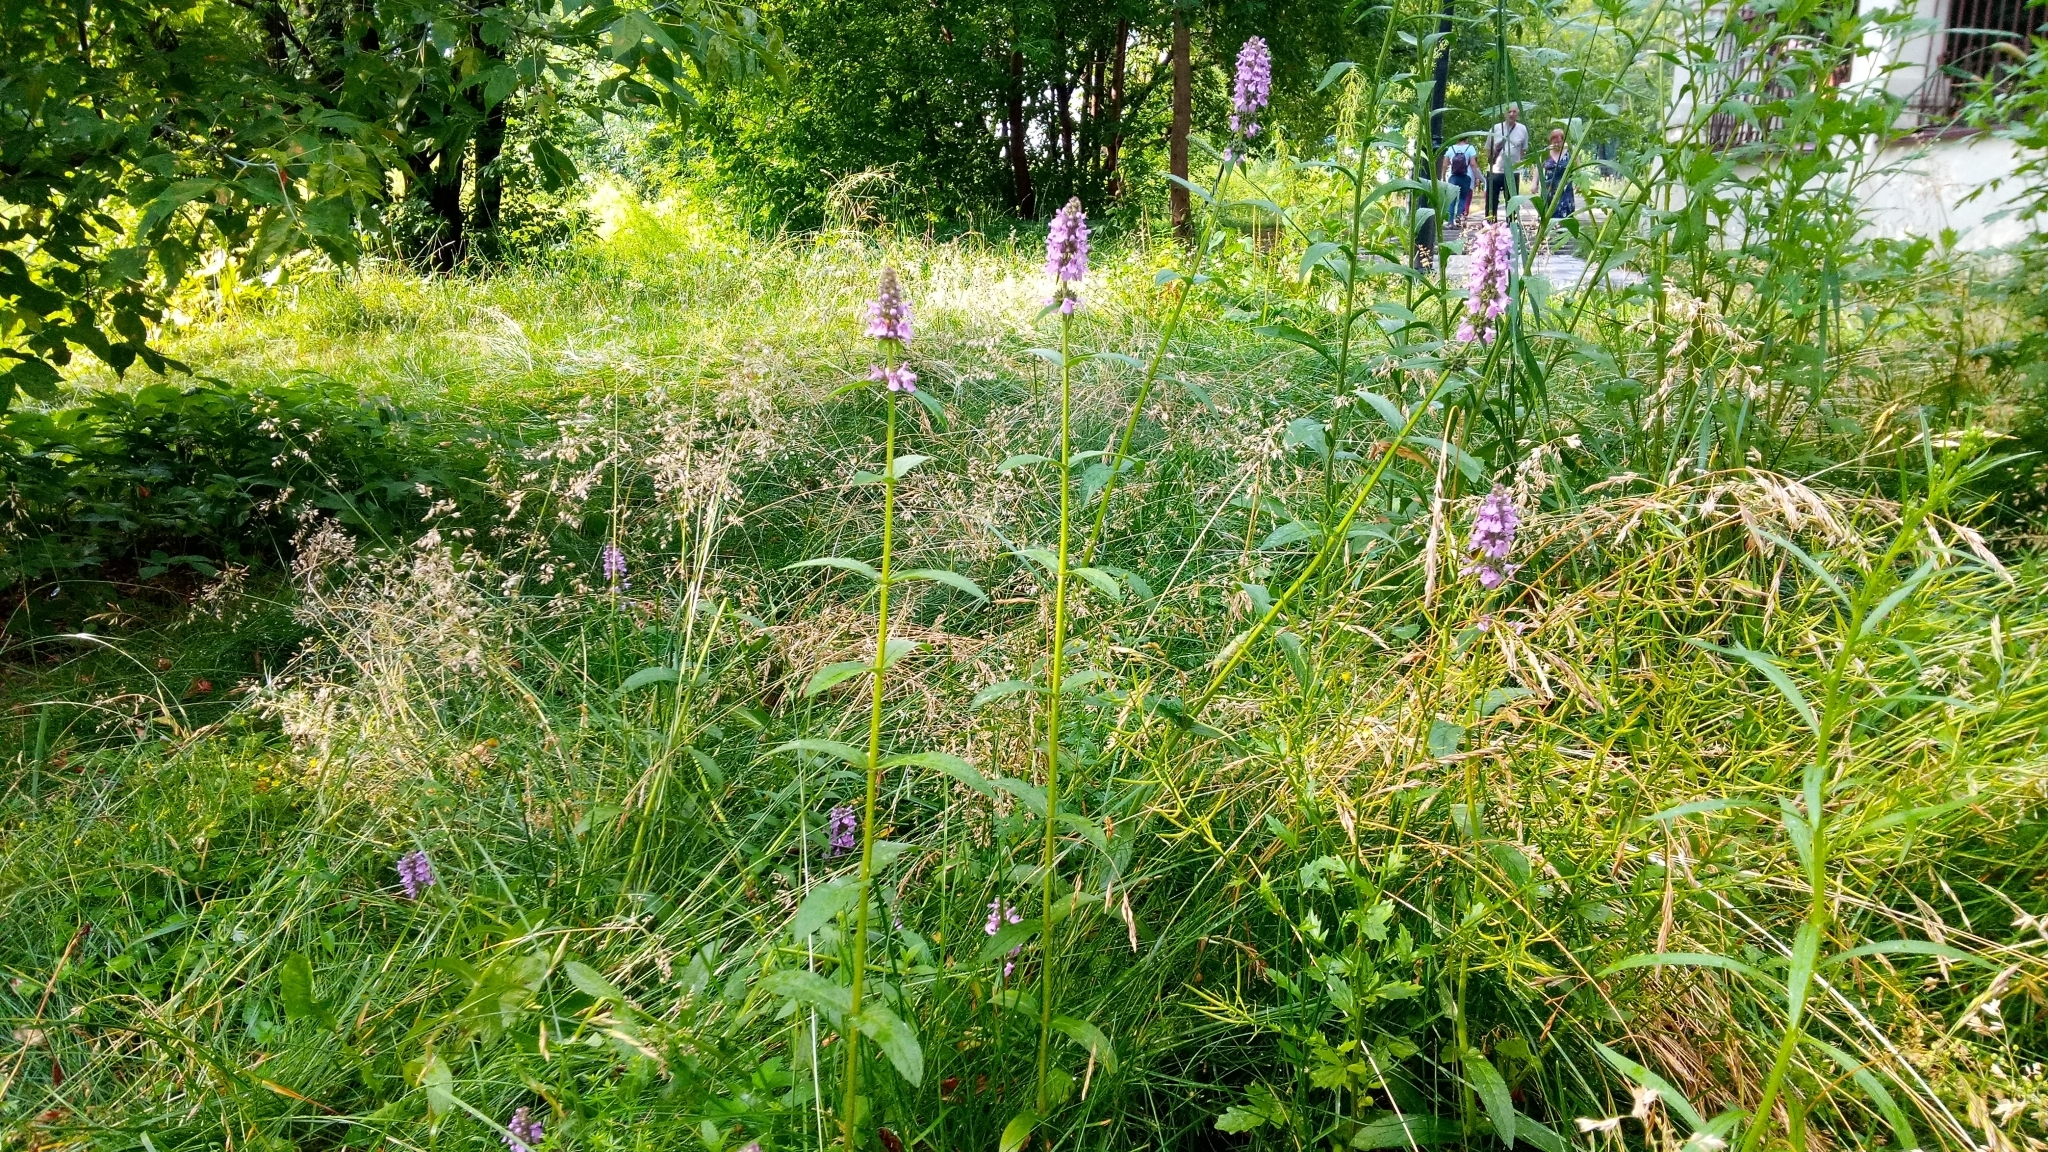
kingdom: Plantae
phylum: Tracheophyta
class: Magnoliopsida
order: Lamiales
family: Lamiaceae
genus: Stachys
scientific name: Stachys palustris
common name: Marsh woundwort
